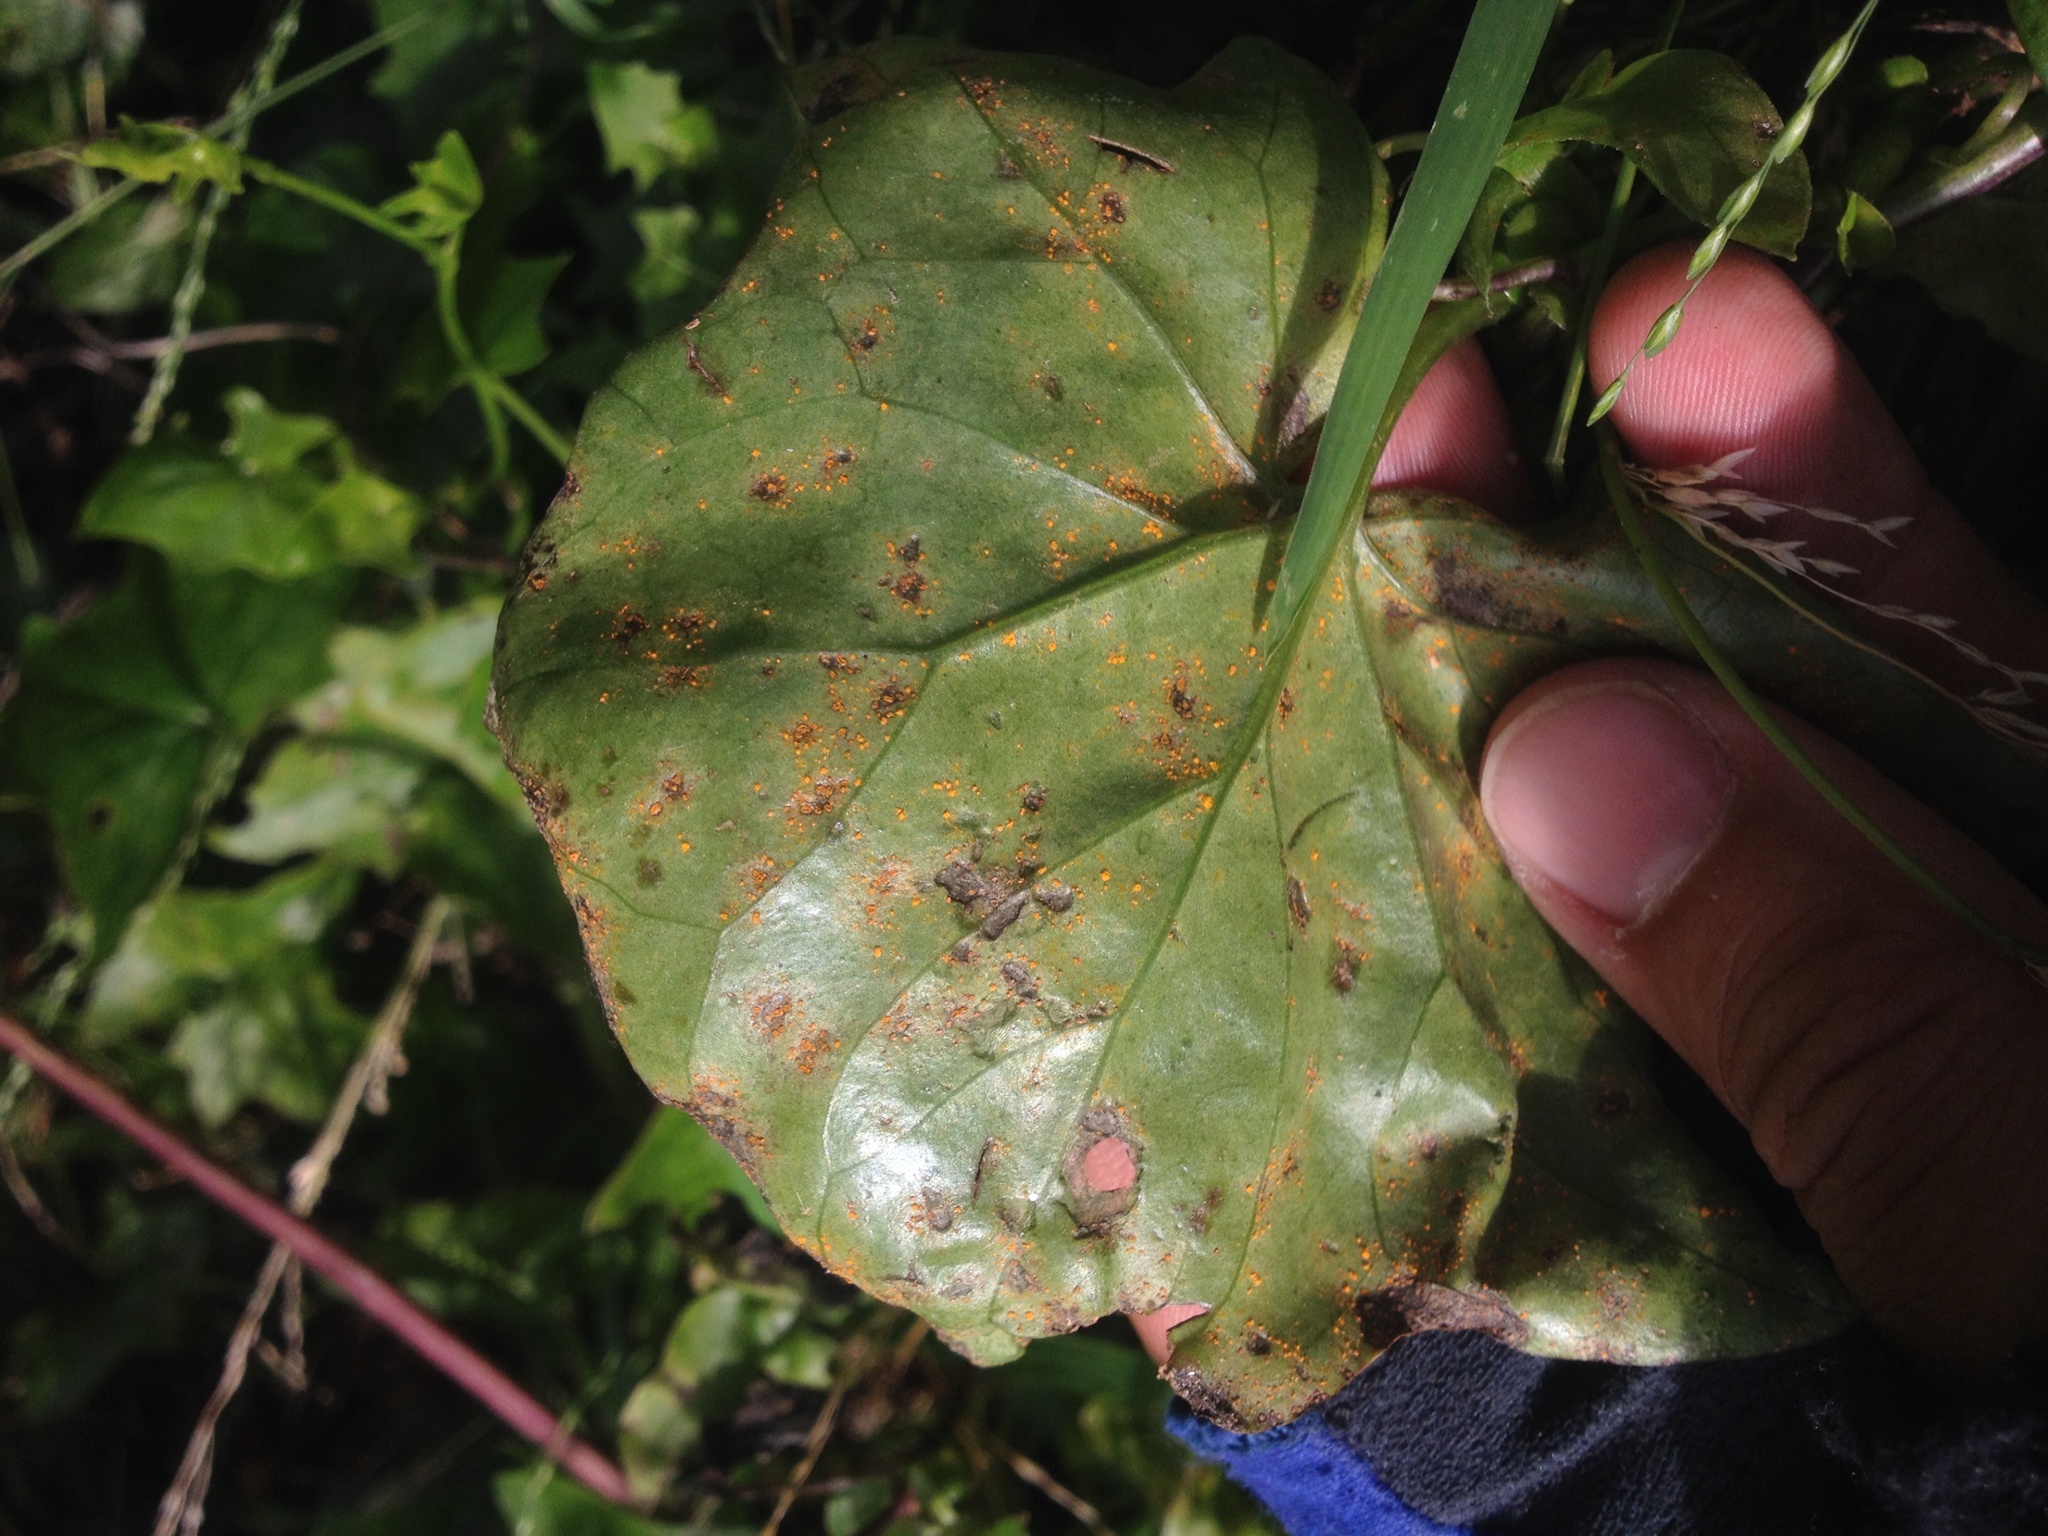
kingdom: Fungi
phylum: Basidiomycota
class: Pucciniomycetes
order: Pucciniales
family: Coleosporiaceae
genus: Coleosporium
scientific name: Coleosporium tussilaginis
